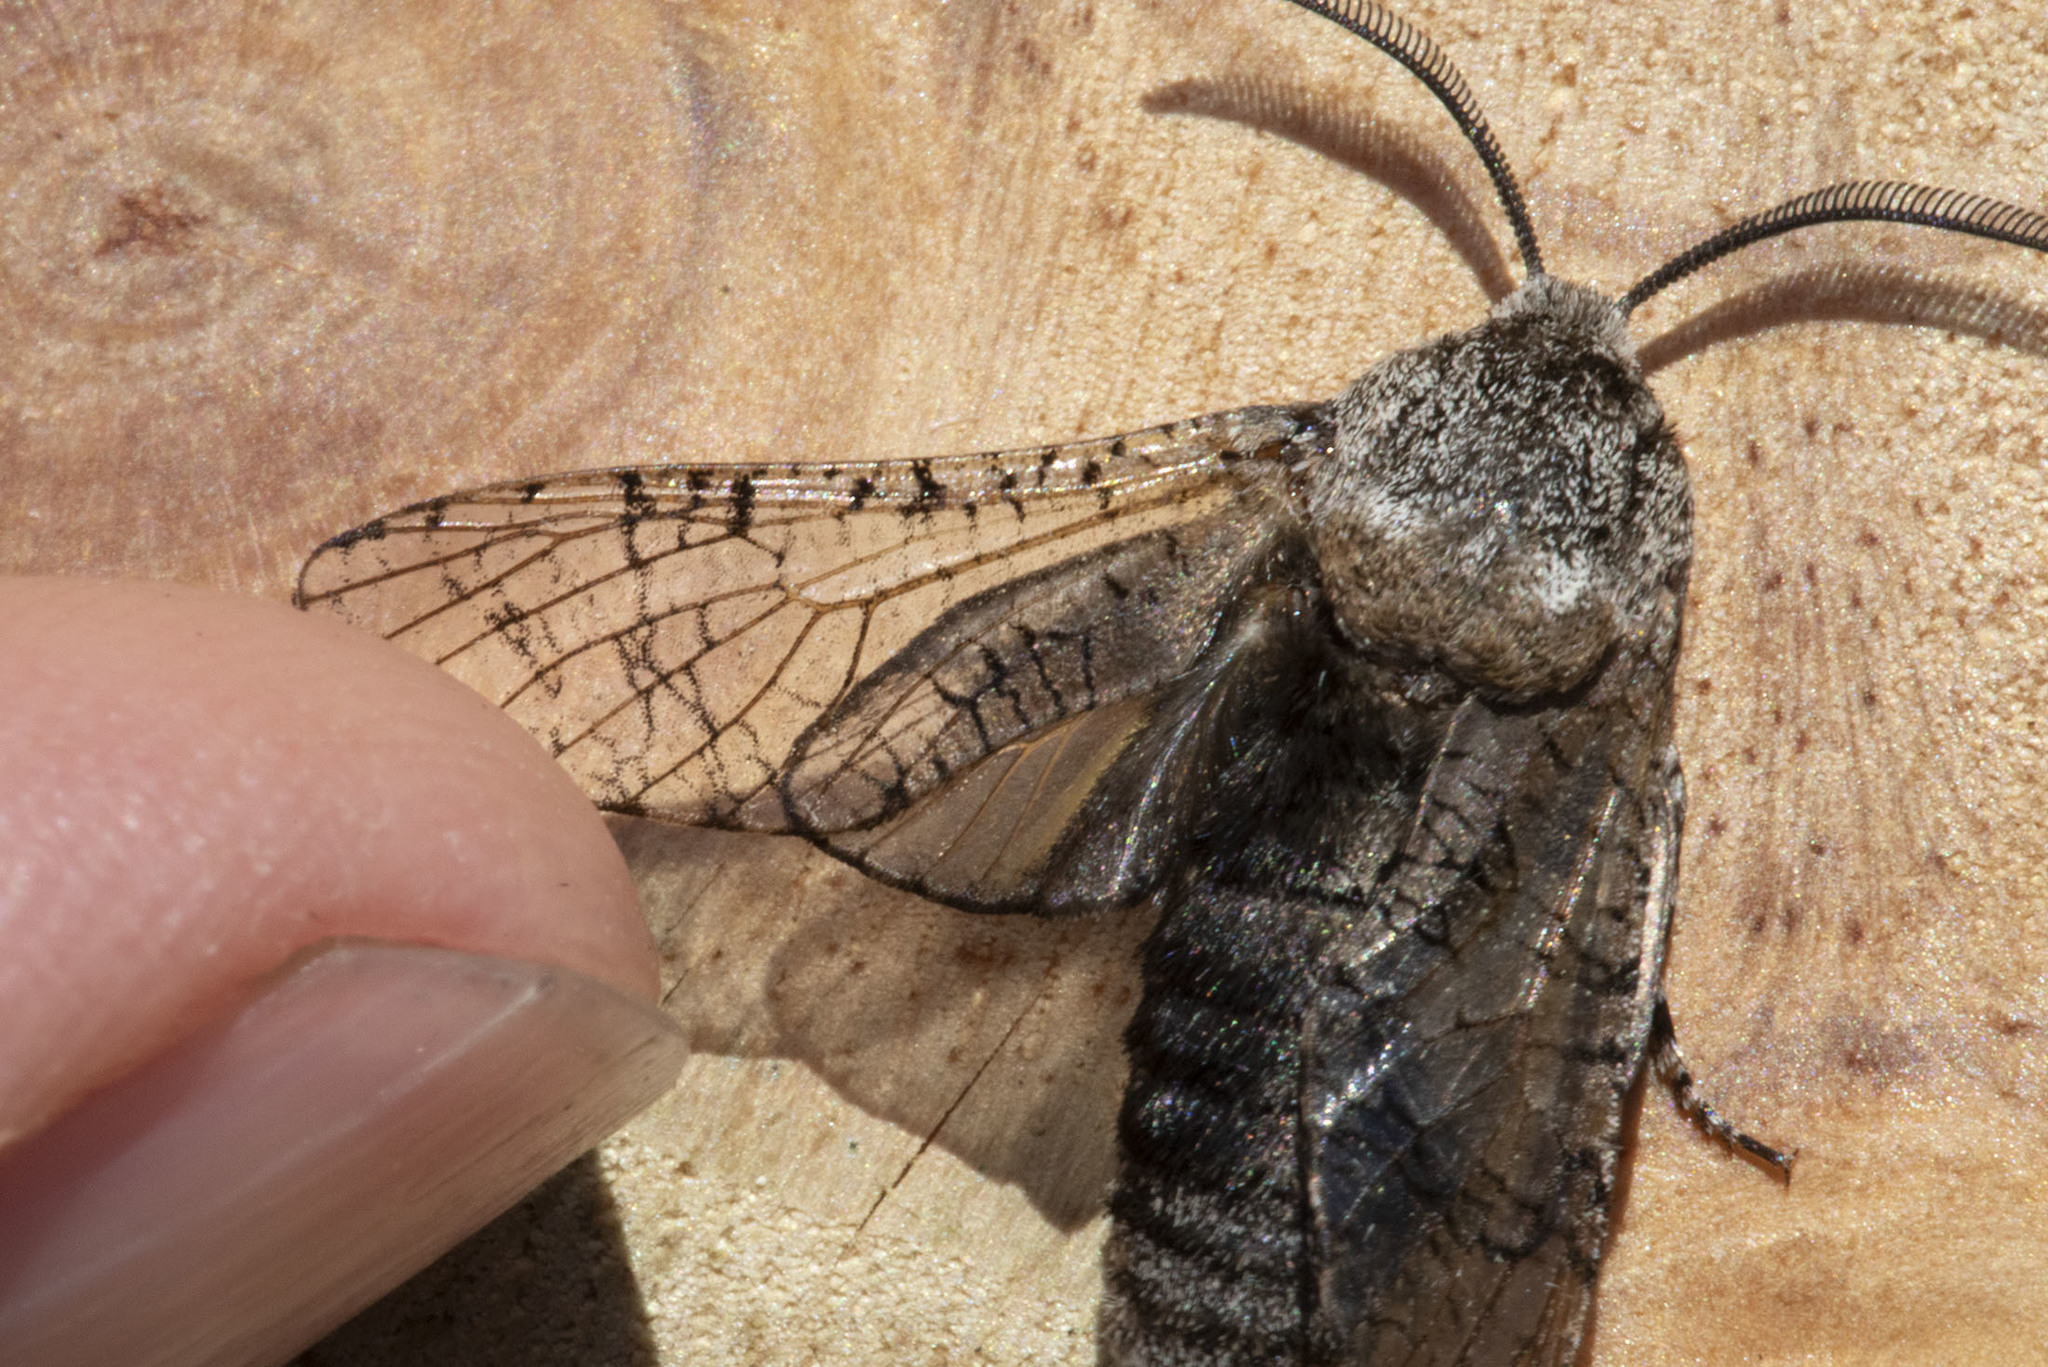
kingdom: Animalia
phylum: Arthropoda
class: Insecta
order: Lepidoptera
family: Cossidae
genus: Prionoxystus
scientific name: Prionoxystus macmurtrei
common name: Little carpenterworm
